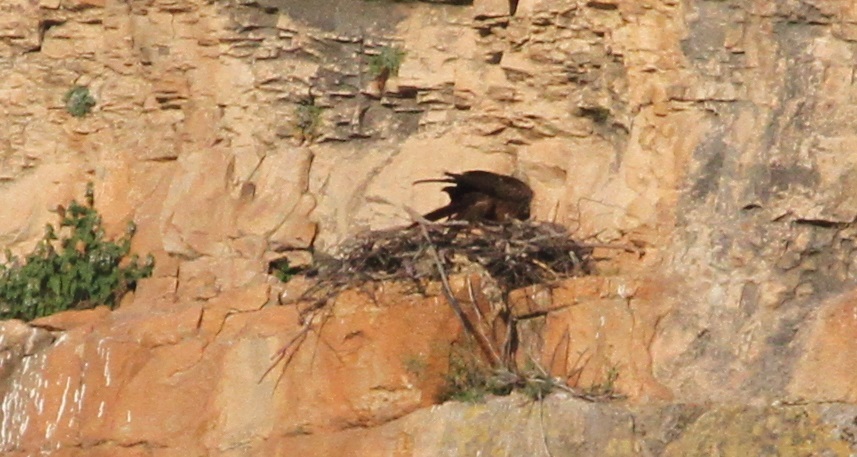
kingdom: Animalia
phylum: Chordata
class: Aves
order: Accipitriformes
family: Accipitridae
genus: Milvus
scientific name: Milvus migrans
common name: Black kite
